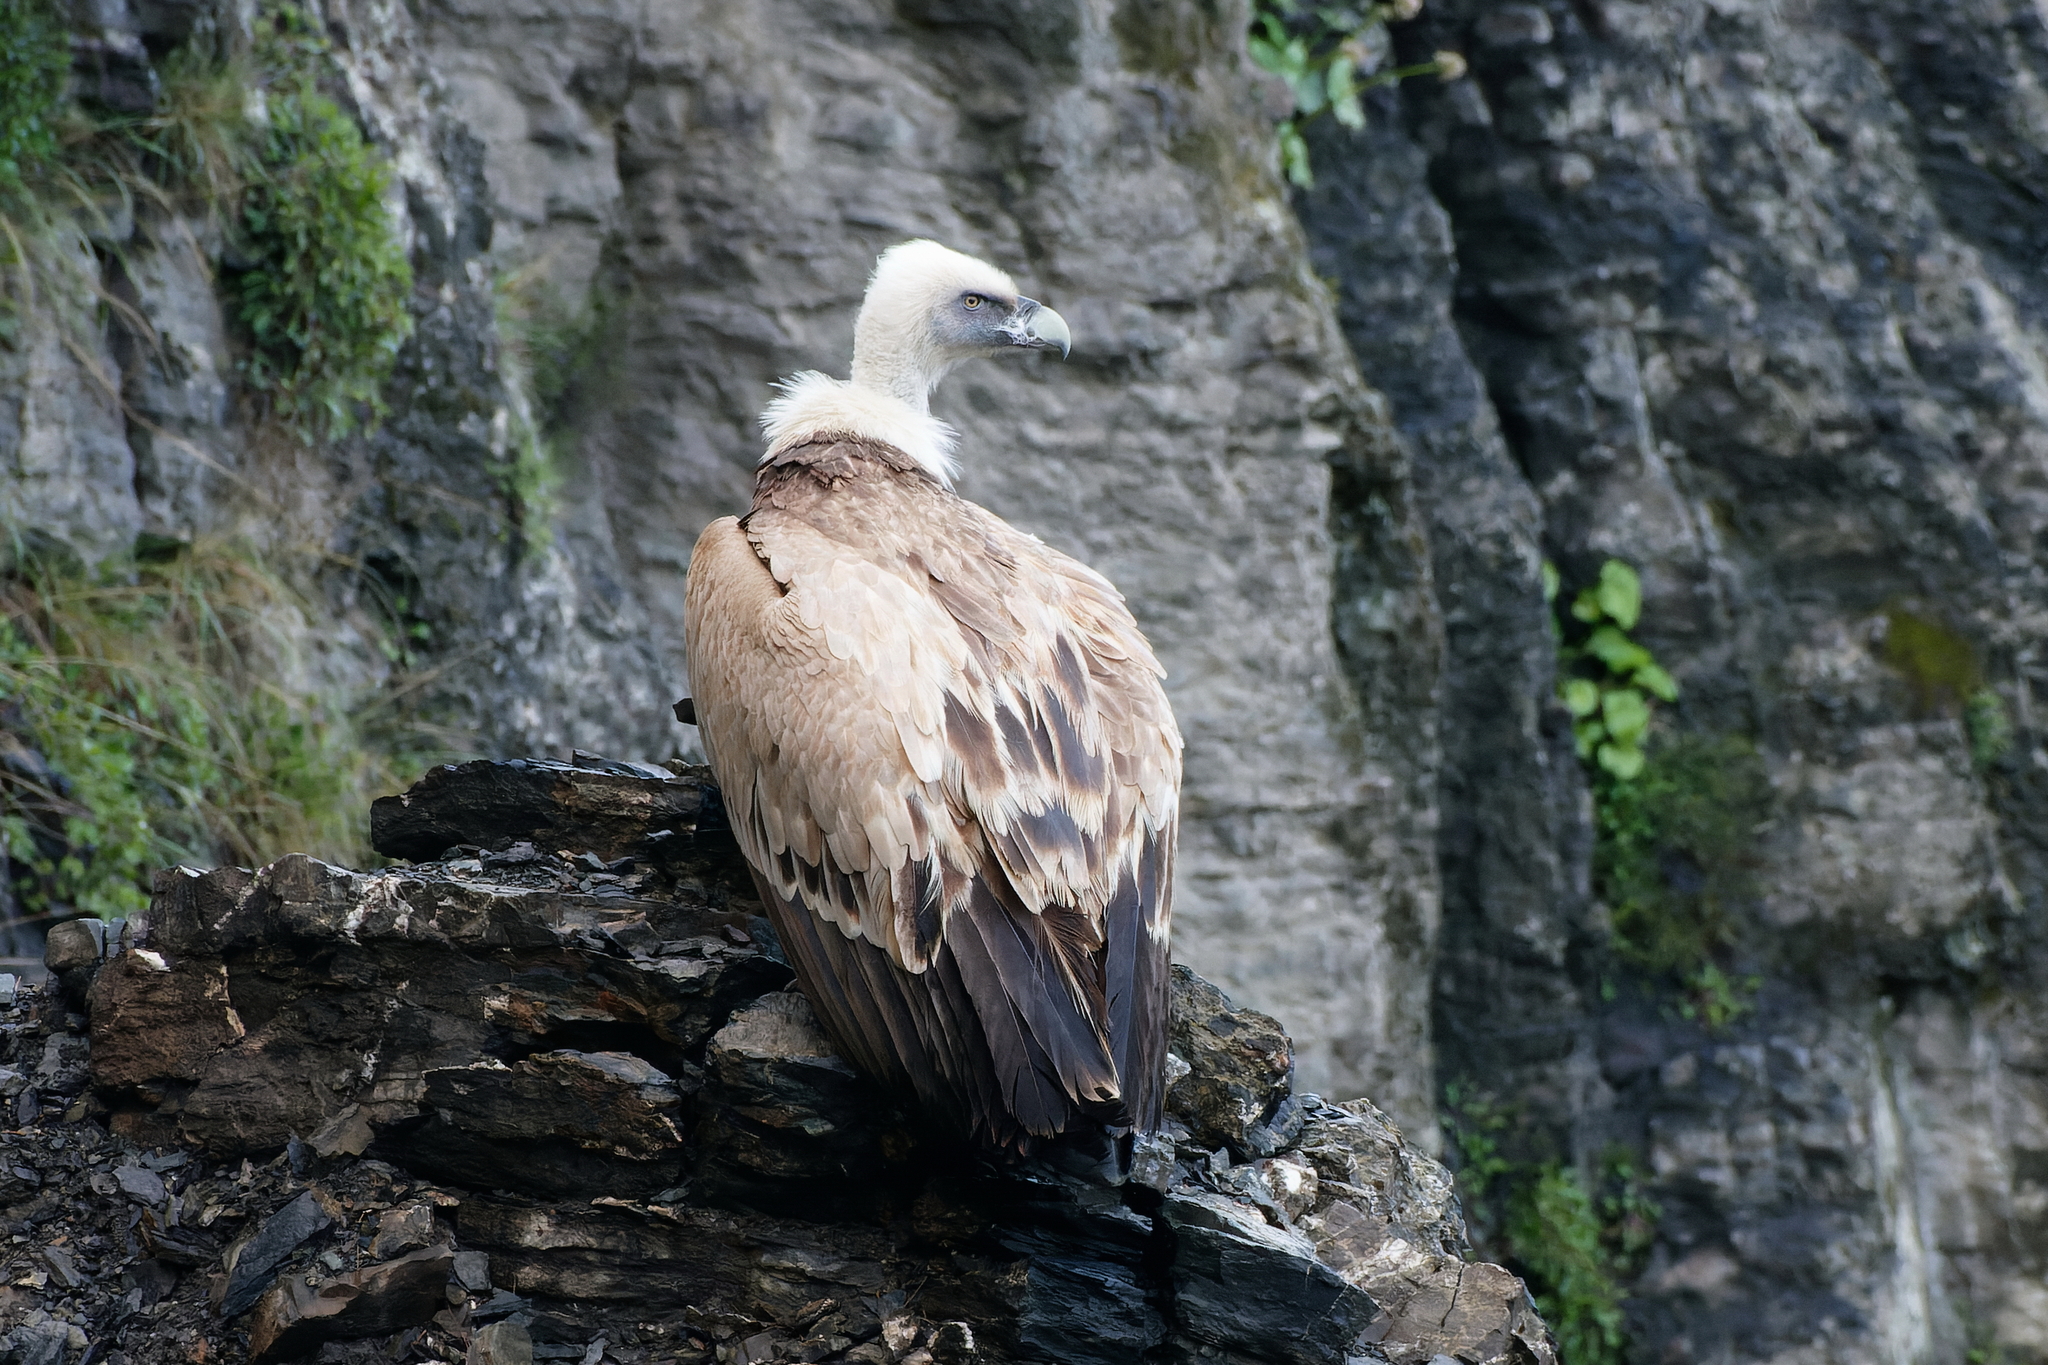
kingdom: Animalia
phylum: Chordata
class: Aves
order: Accipitriformes
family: Accipitridae
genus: Gyps
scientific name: Gyps fulvus
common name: Griffon vulture
